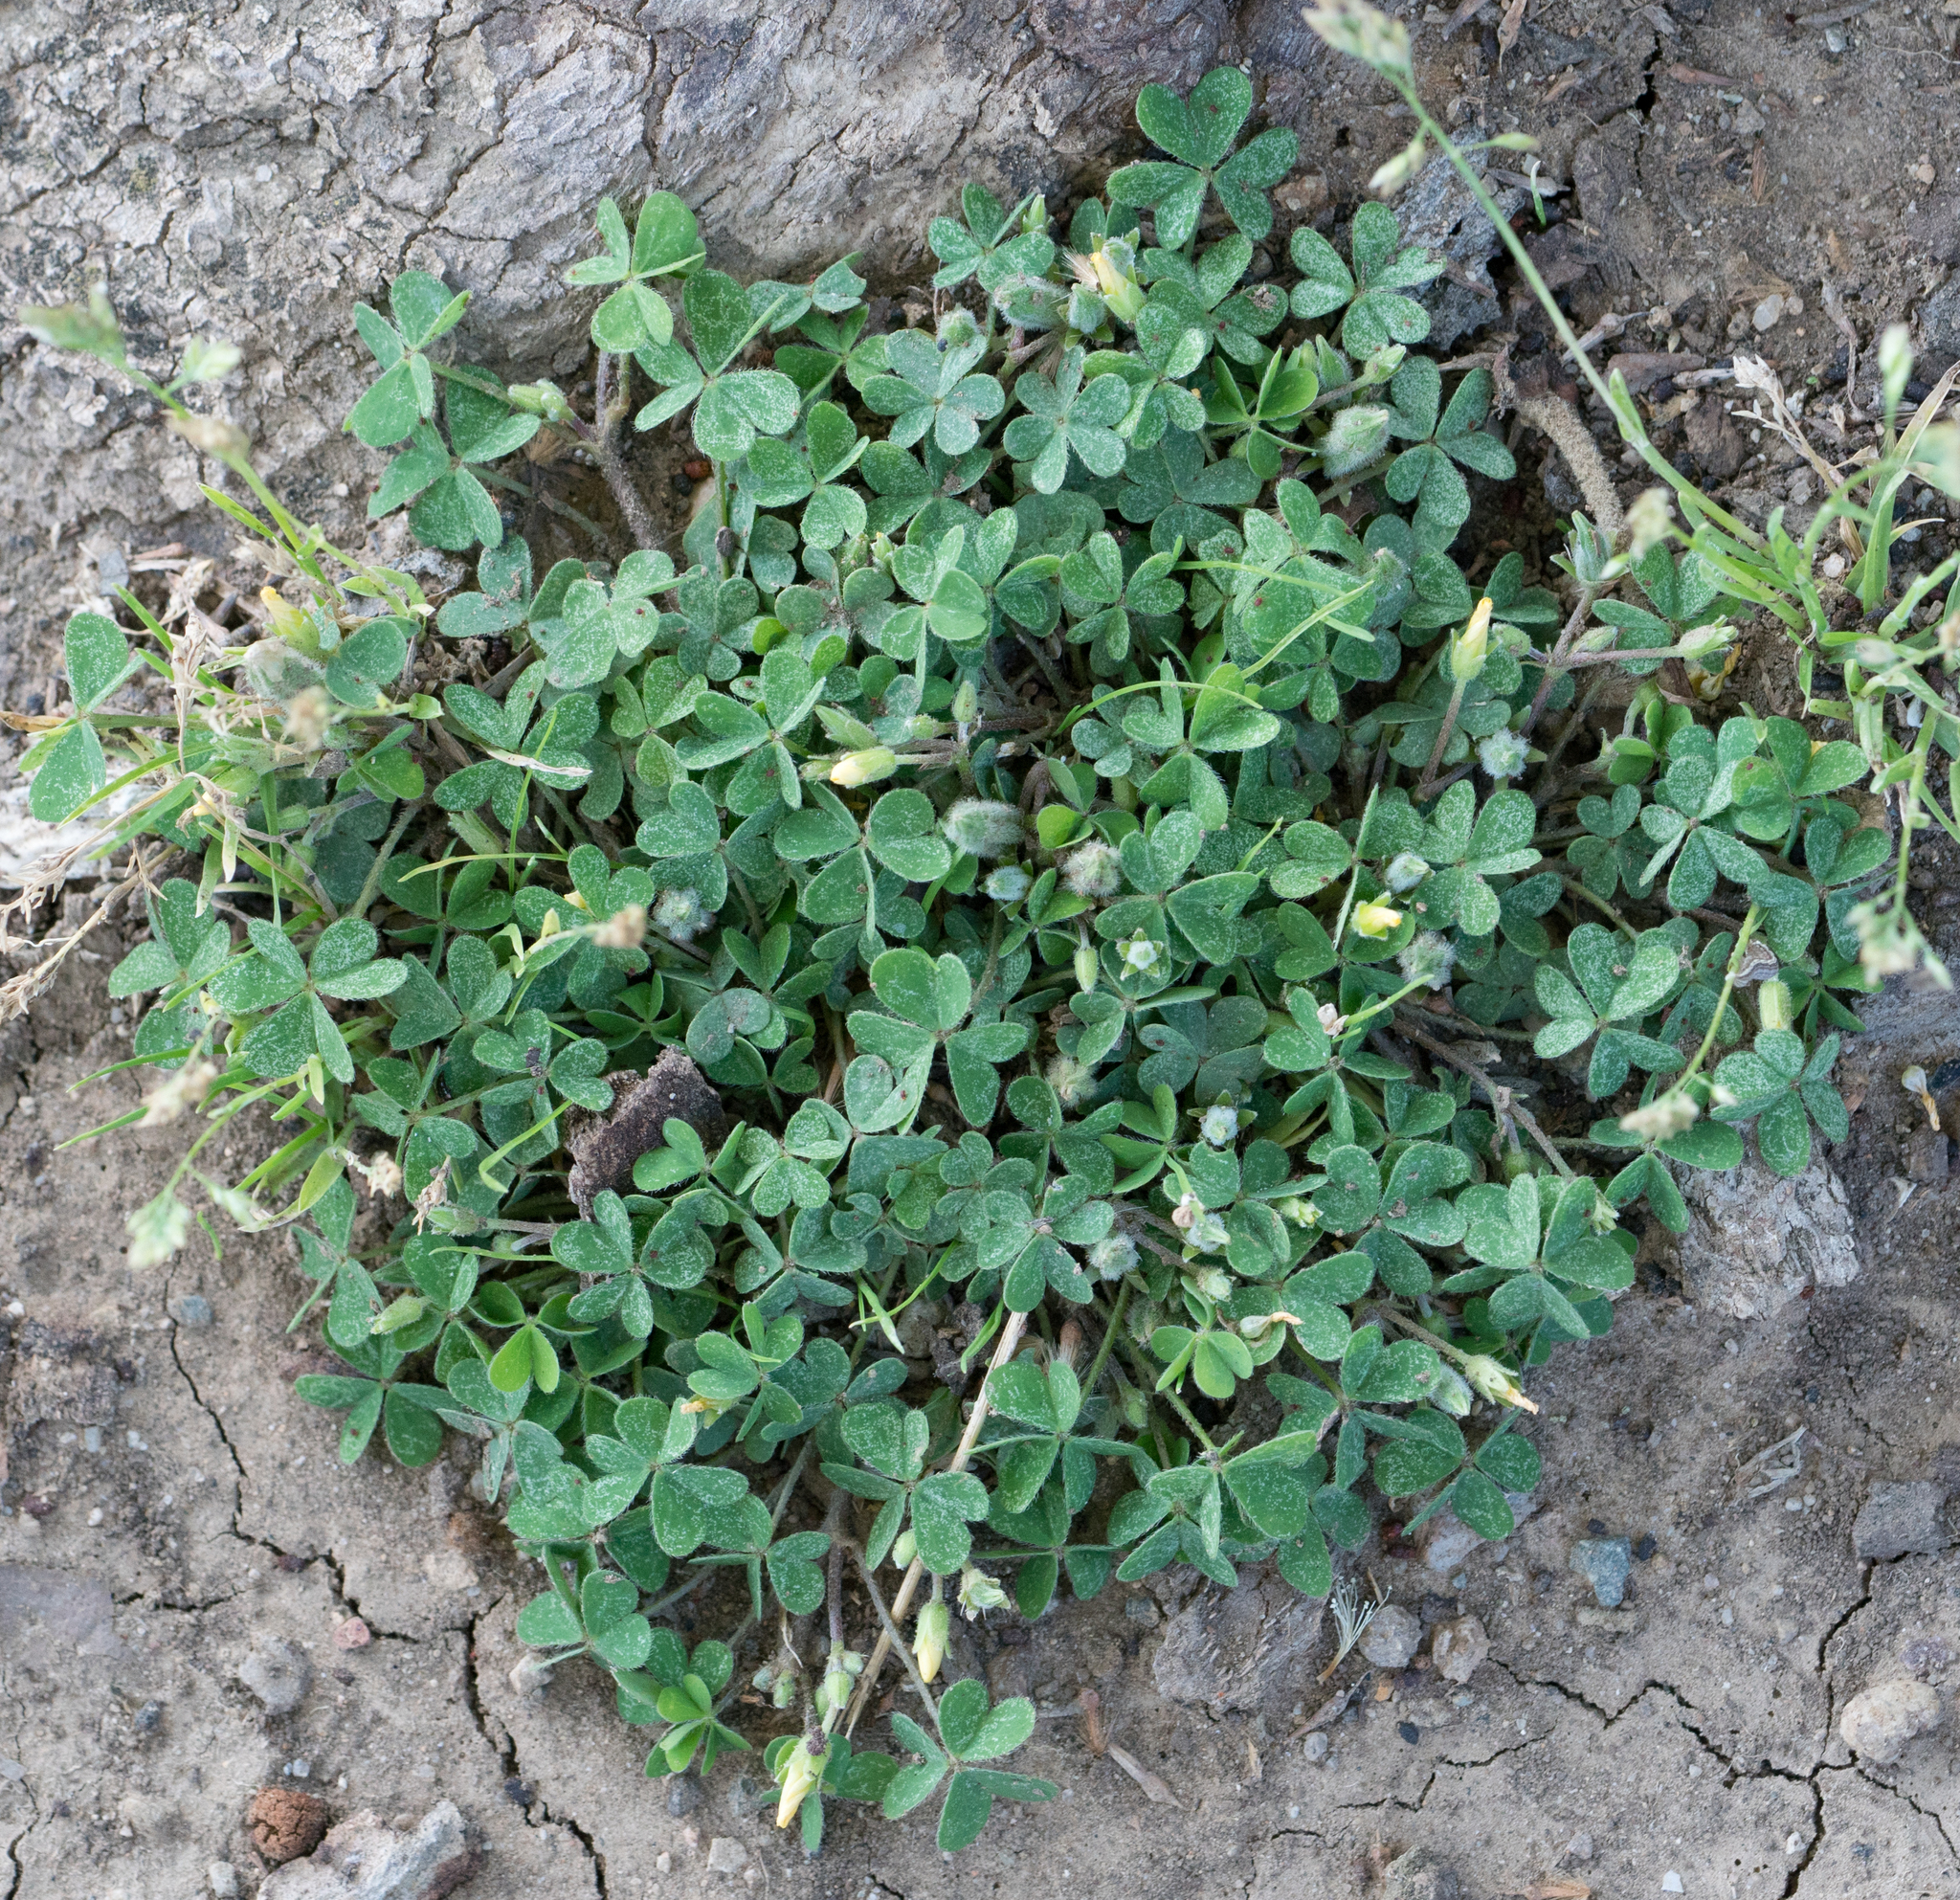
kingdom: Plantae
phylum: Tracheophyta
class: Magnoliopsida
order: Oxalidales
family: Oxalidaceae
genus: Oxalis
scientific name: Oxalis corniculata
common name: Procumbent yellow-sorrel
